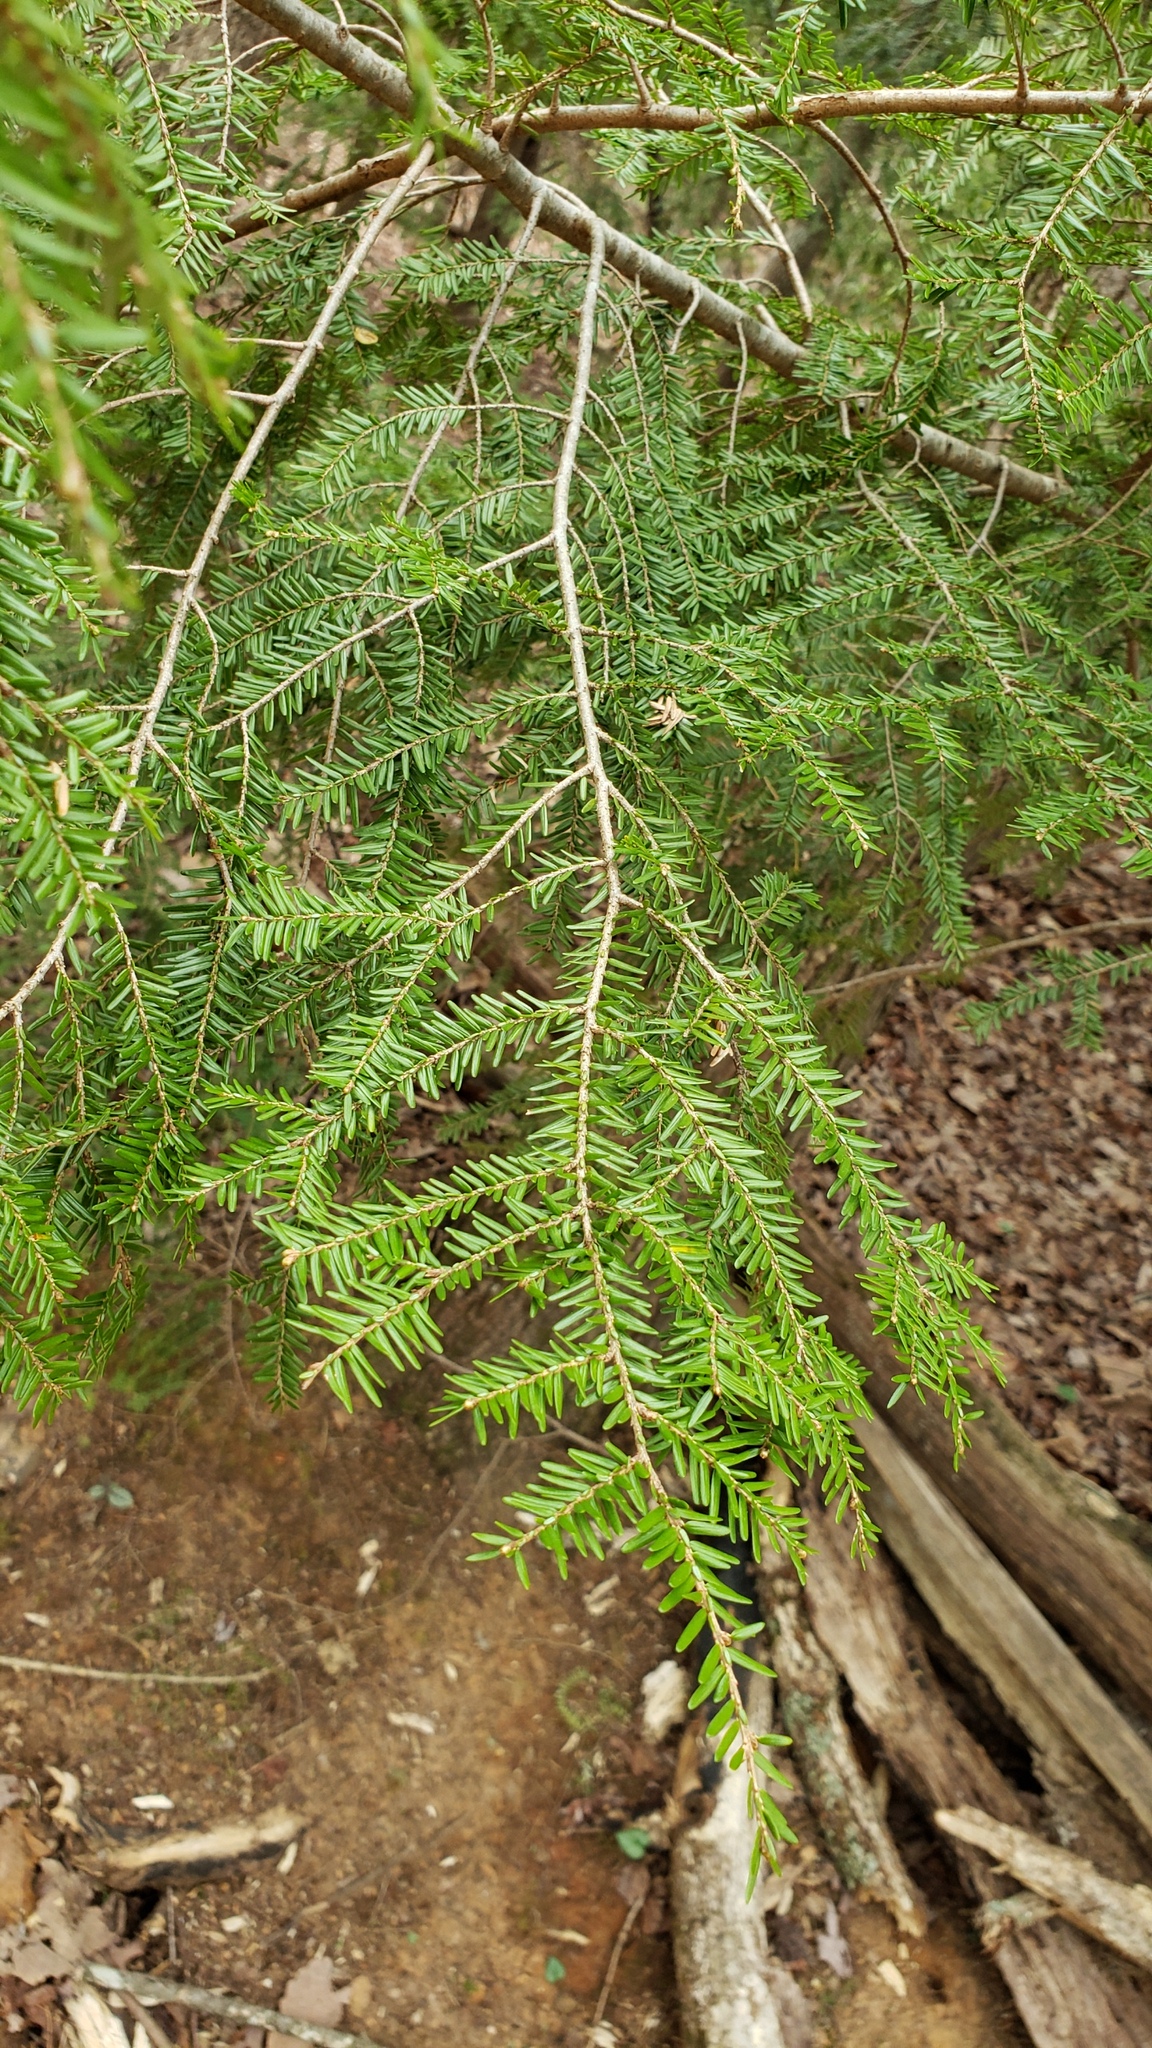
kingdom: Plantae
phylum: Tracheophyta
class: Pinopsida
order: Pinales
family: Pinaceae
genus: Tsuga
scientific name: Tsuga canadensis
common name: Eastern hemlock
